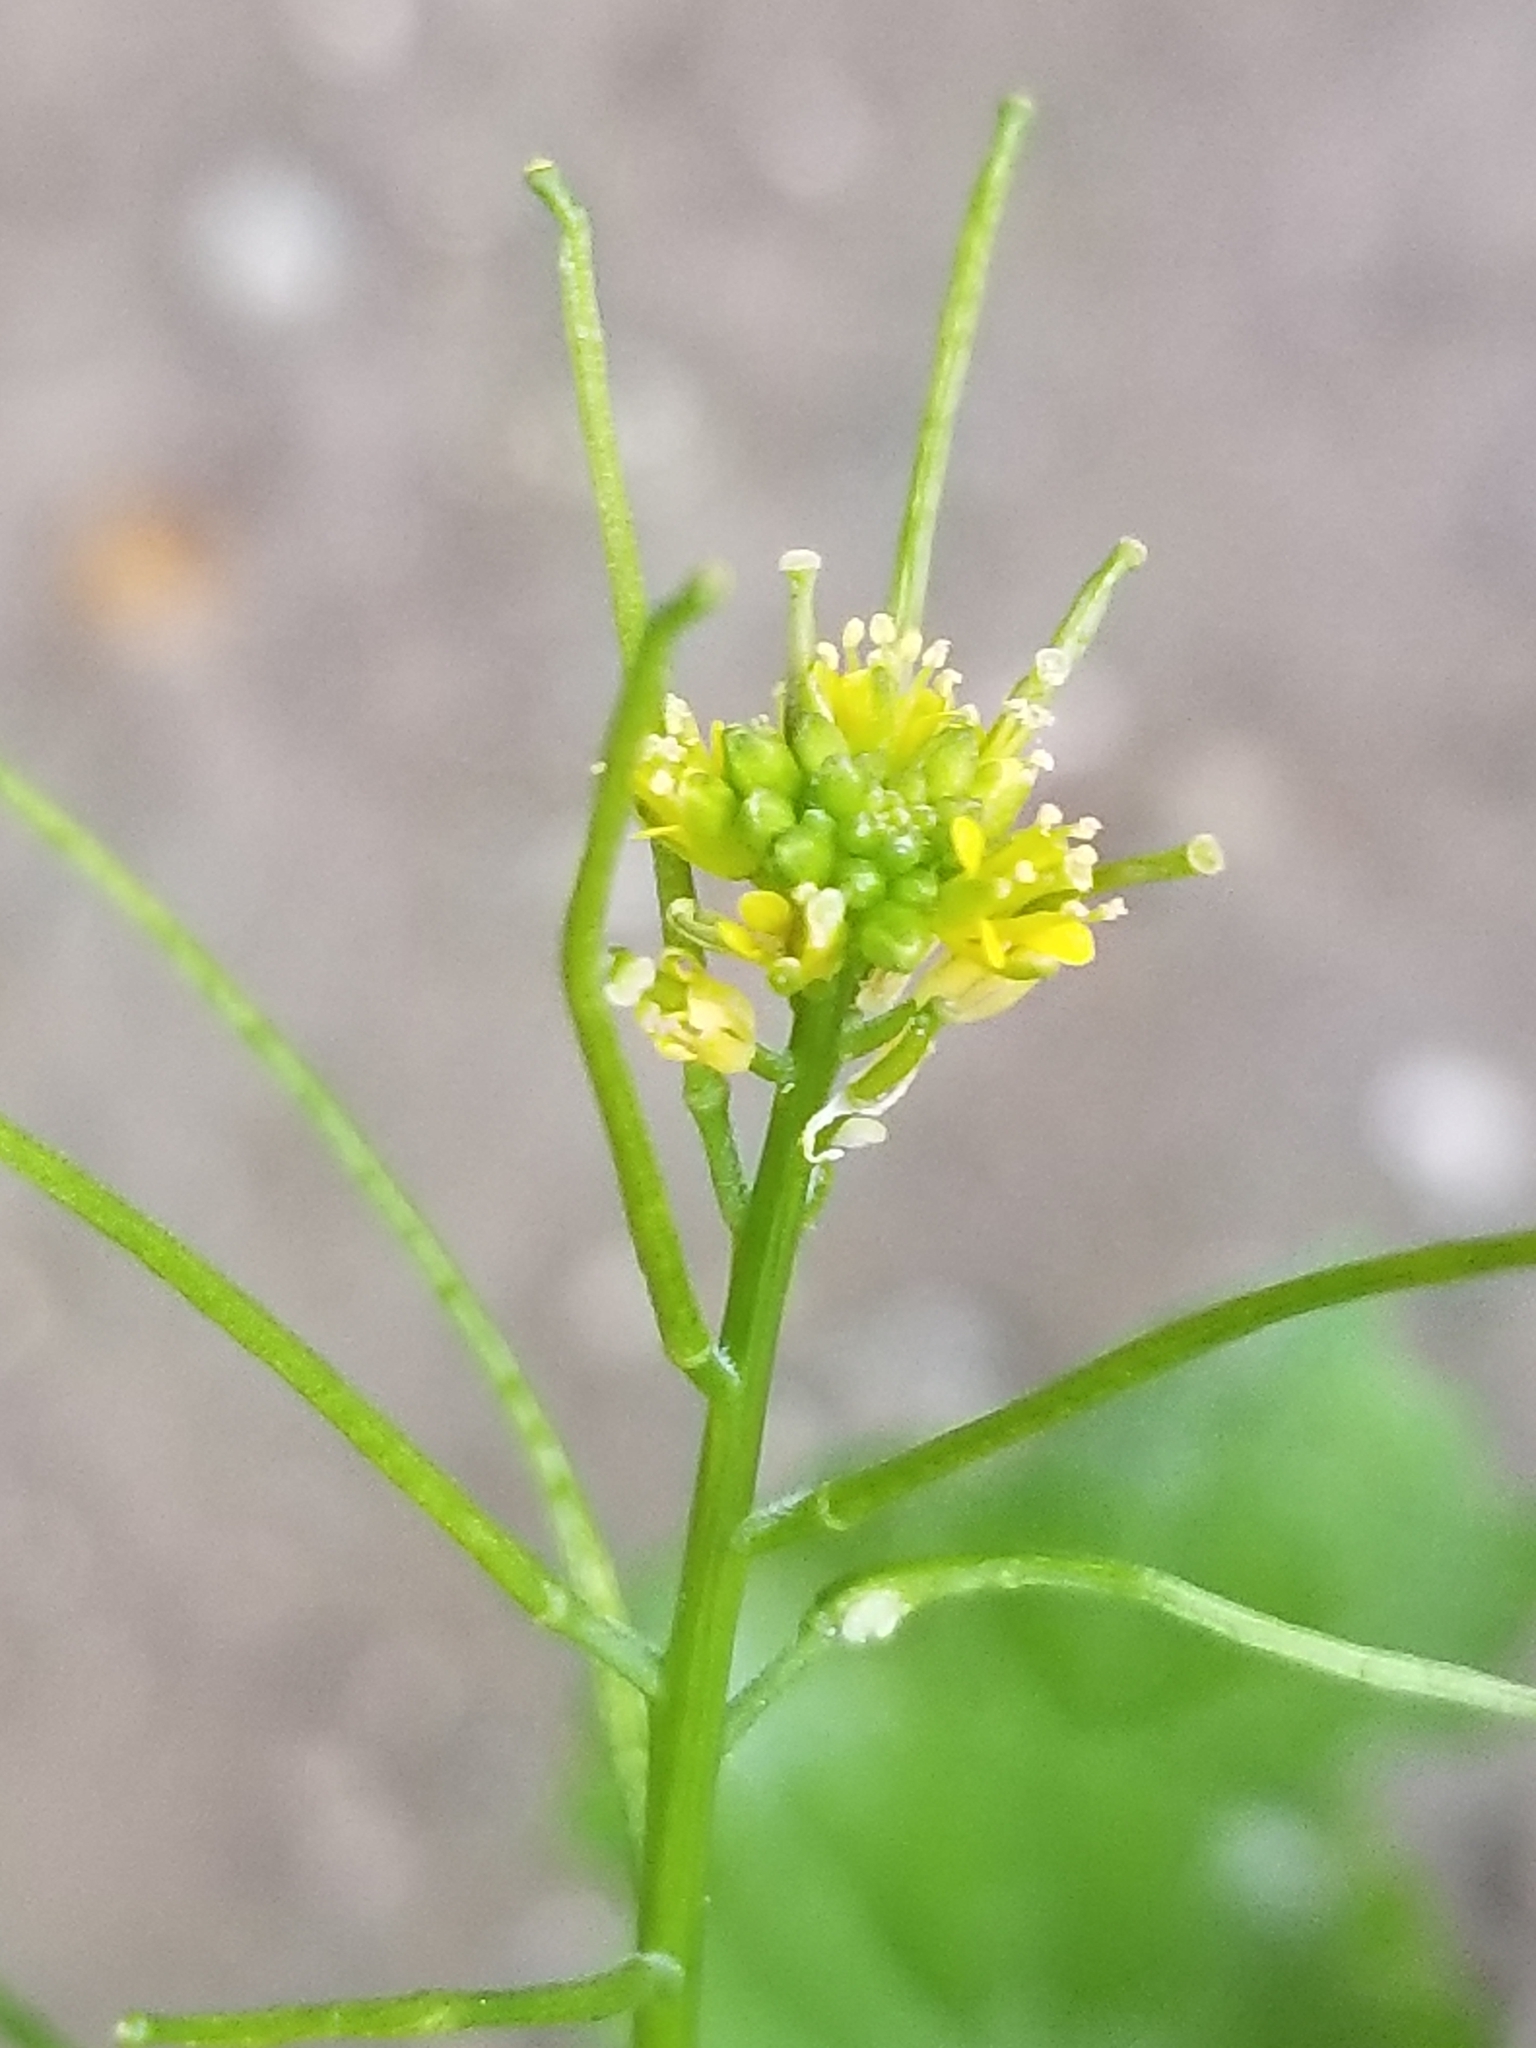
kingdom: Plantae
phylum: Tracheophyta
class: Magnoliopsida
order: Brassicales
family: Brassicaceae
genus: Sisymbrium
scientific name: Sisymbrium irio
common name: London rocket
